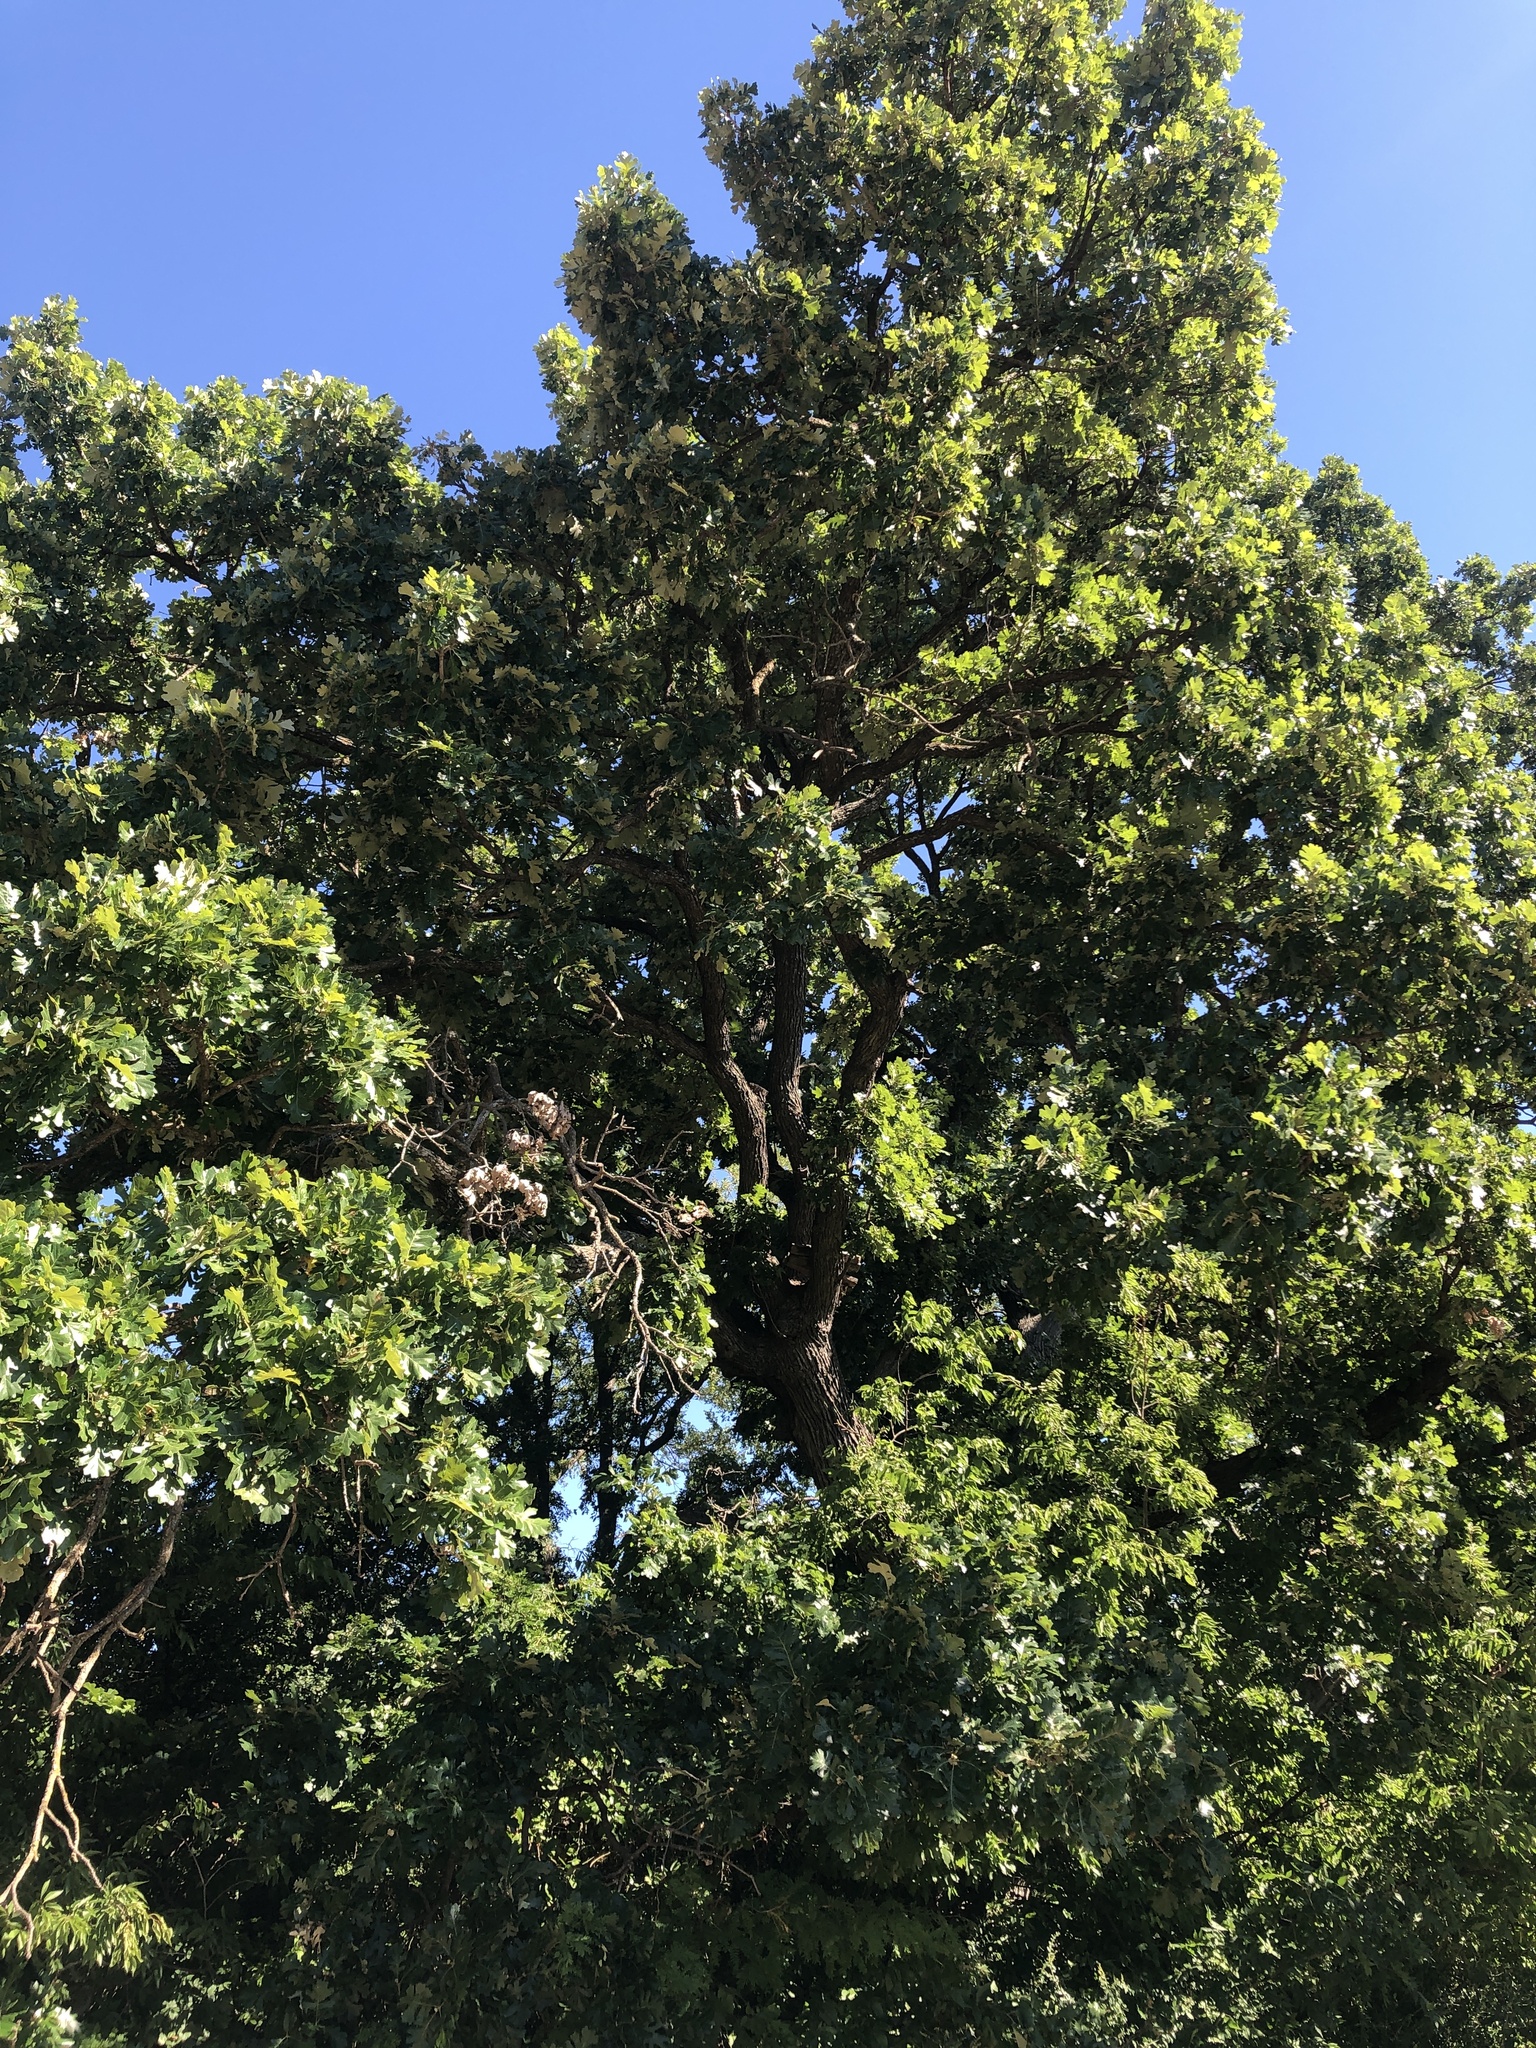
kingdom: Plantae
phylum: Tracheophyta
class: Magnoliopsida
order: Fagales
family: Fagaceae
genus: Quercus
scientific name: Quercus macrocarpa
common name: Bur oak
